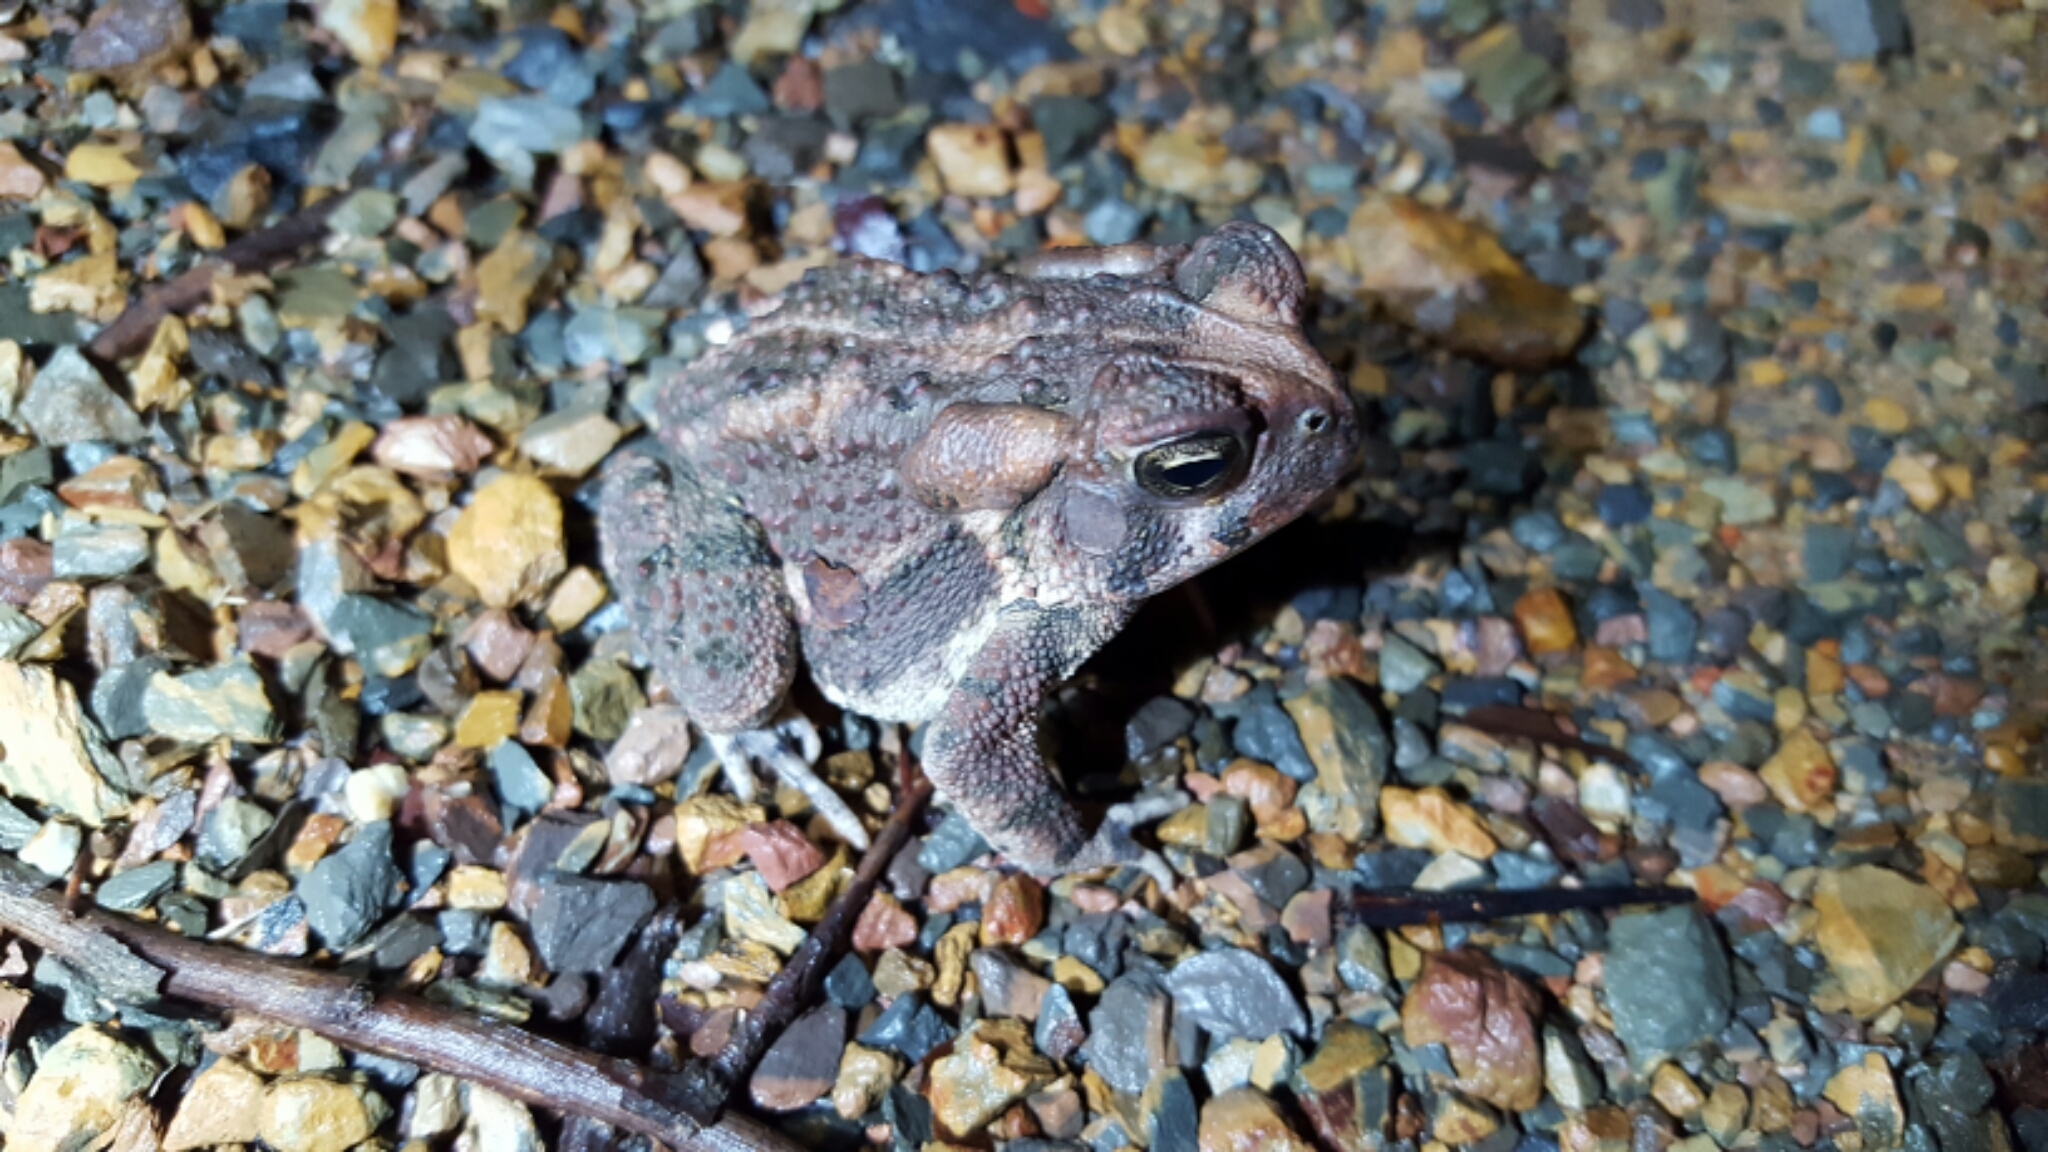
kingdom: Animalia
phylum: Chordata
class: Amphibia
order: Anura
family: Bufonidae
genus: Anaxyrus
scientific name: Anaxyrus americanus
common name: American toad
